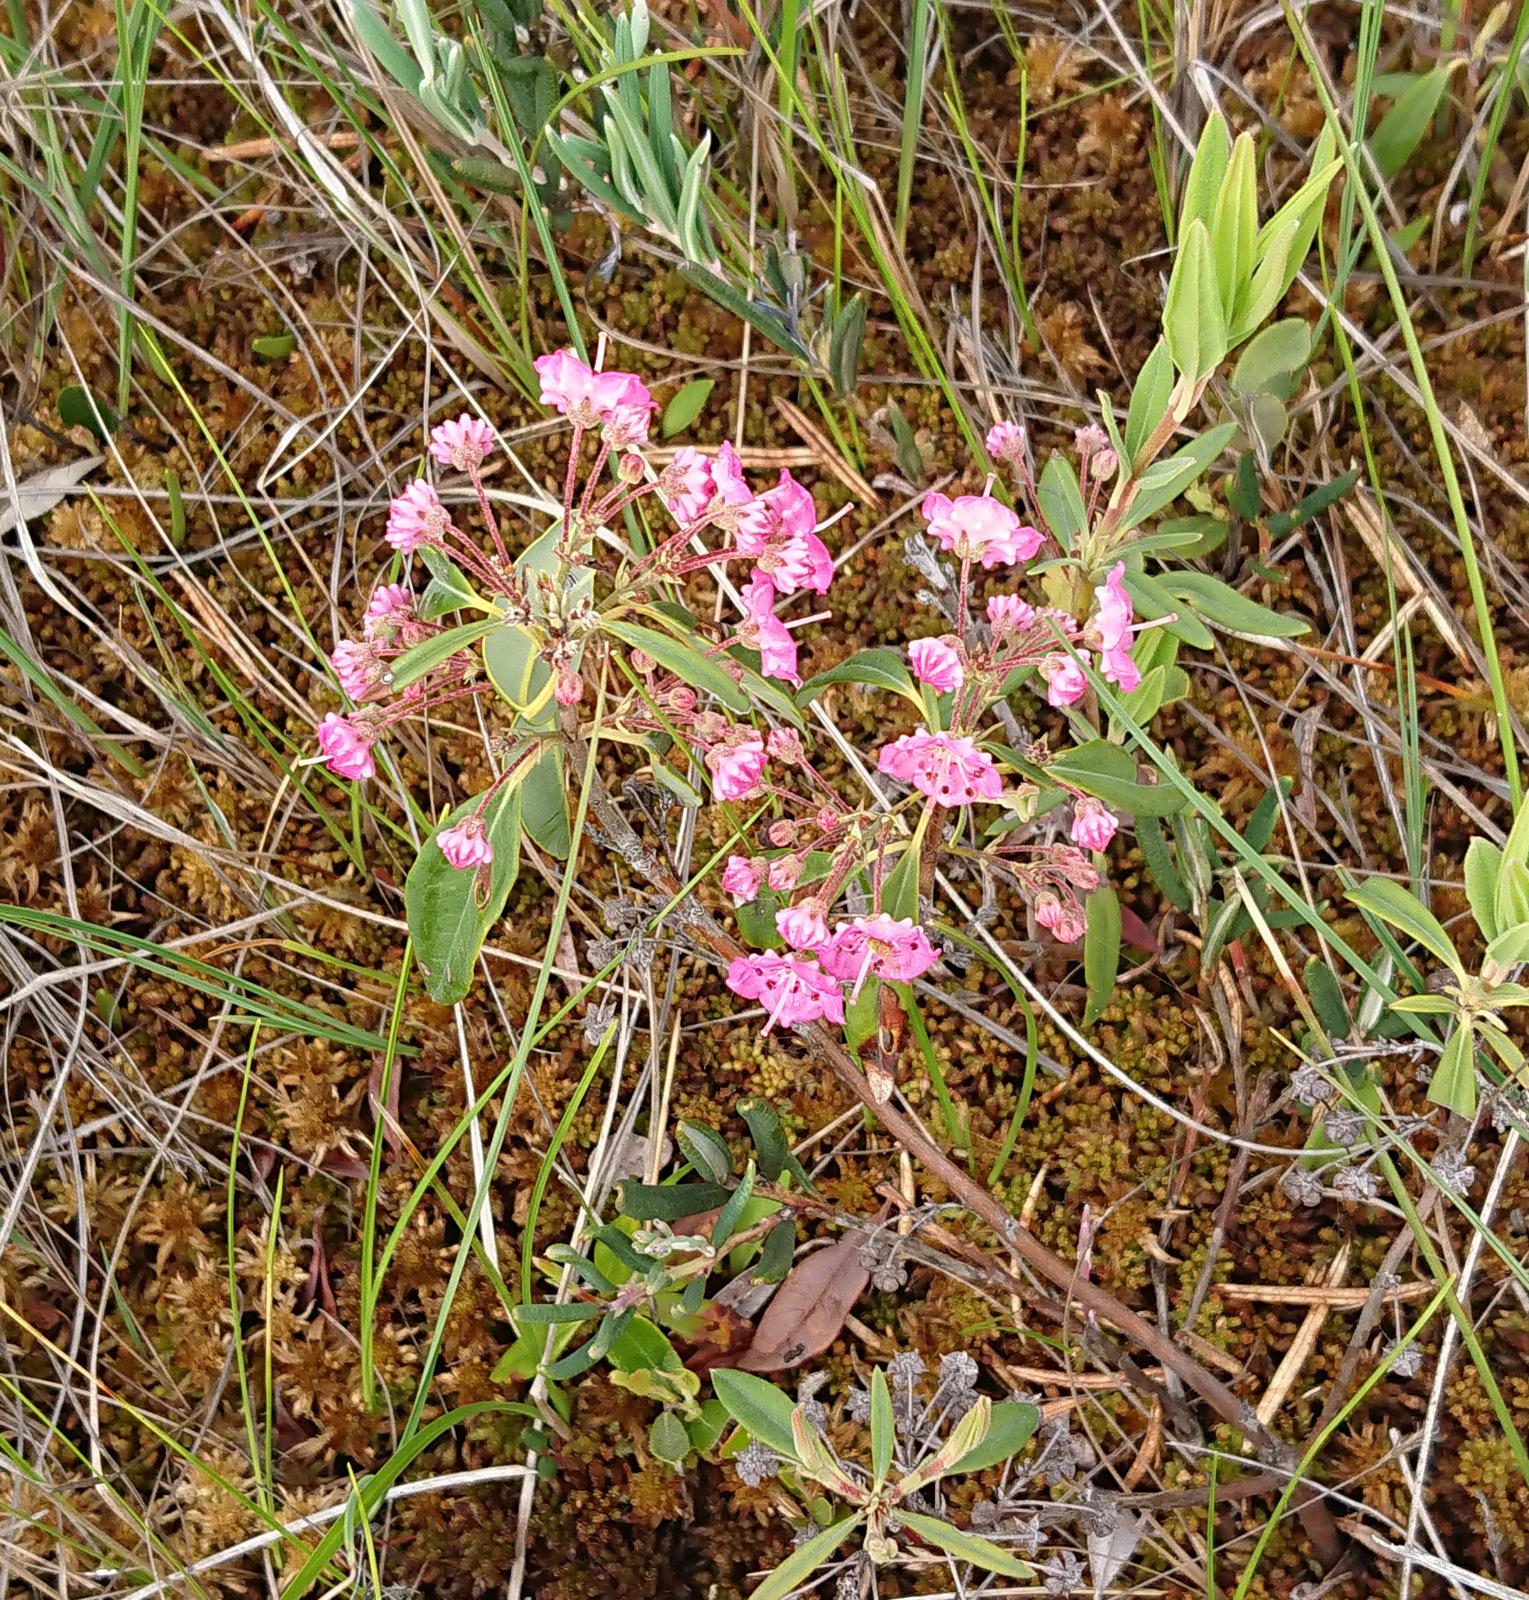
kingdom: Plantae
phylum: Tracheophyta
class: Magnoliopsida
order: Ericales
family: Ericaceae
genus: Kalmia
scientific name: Kalmia angustifolia
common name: Sheep-laurel
